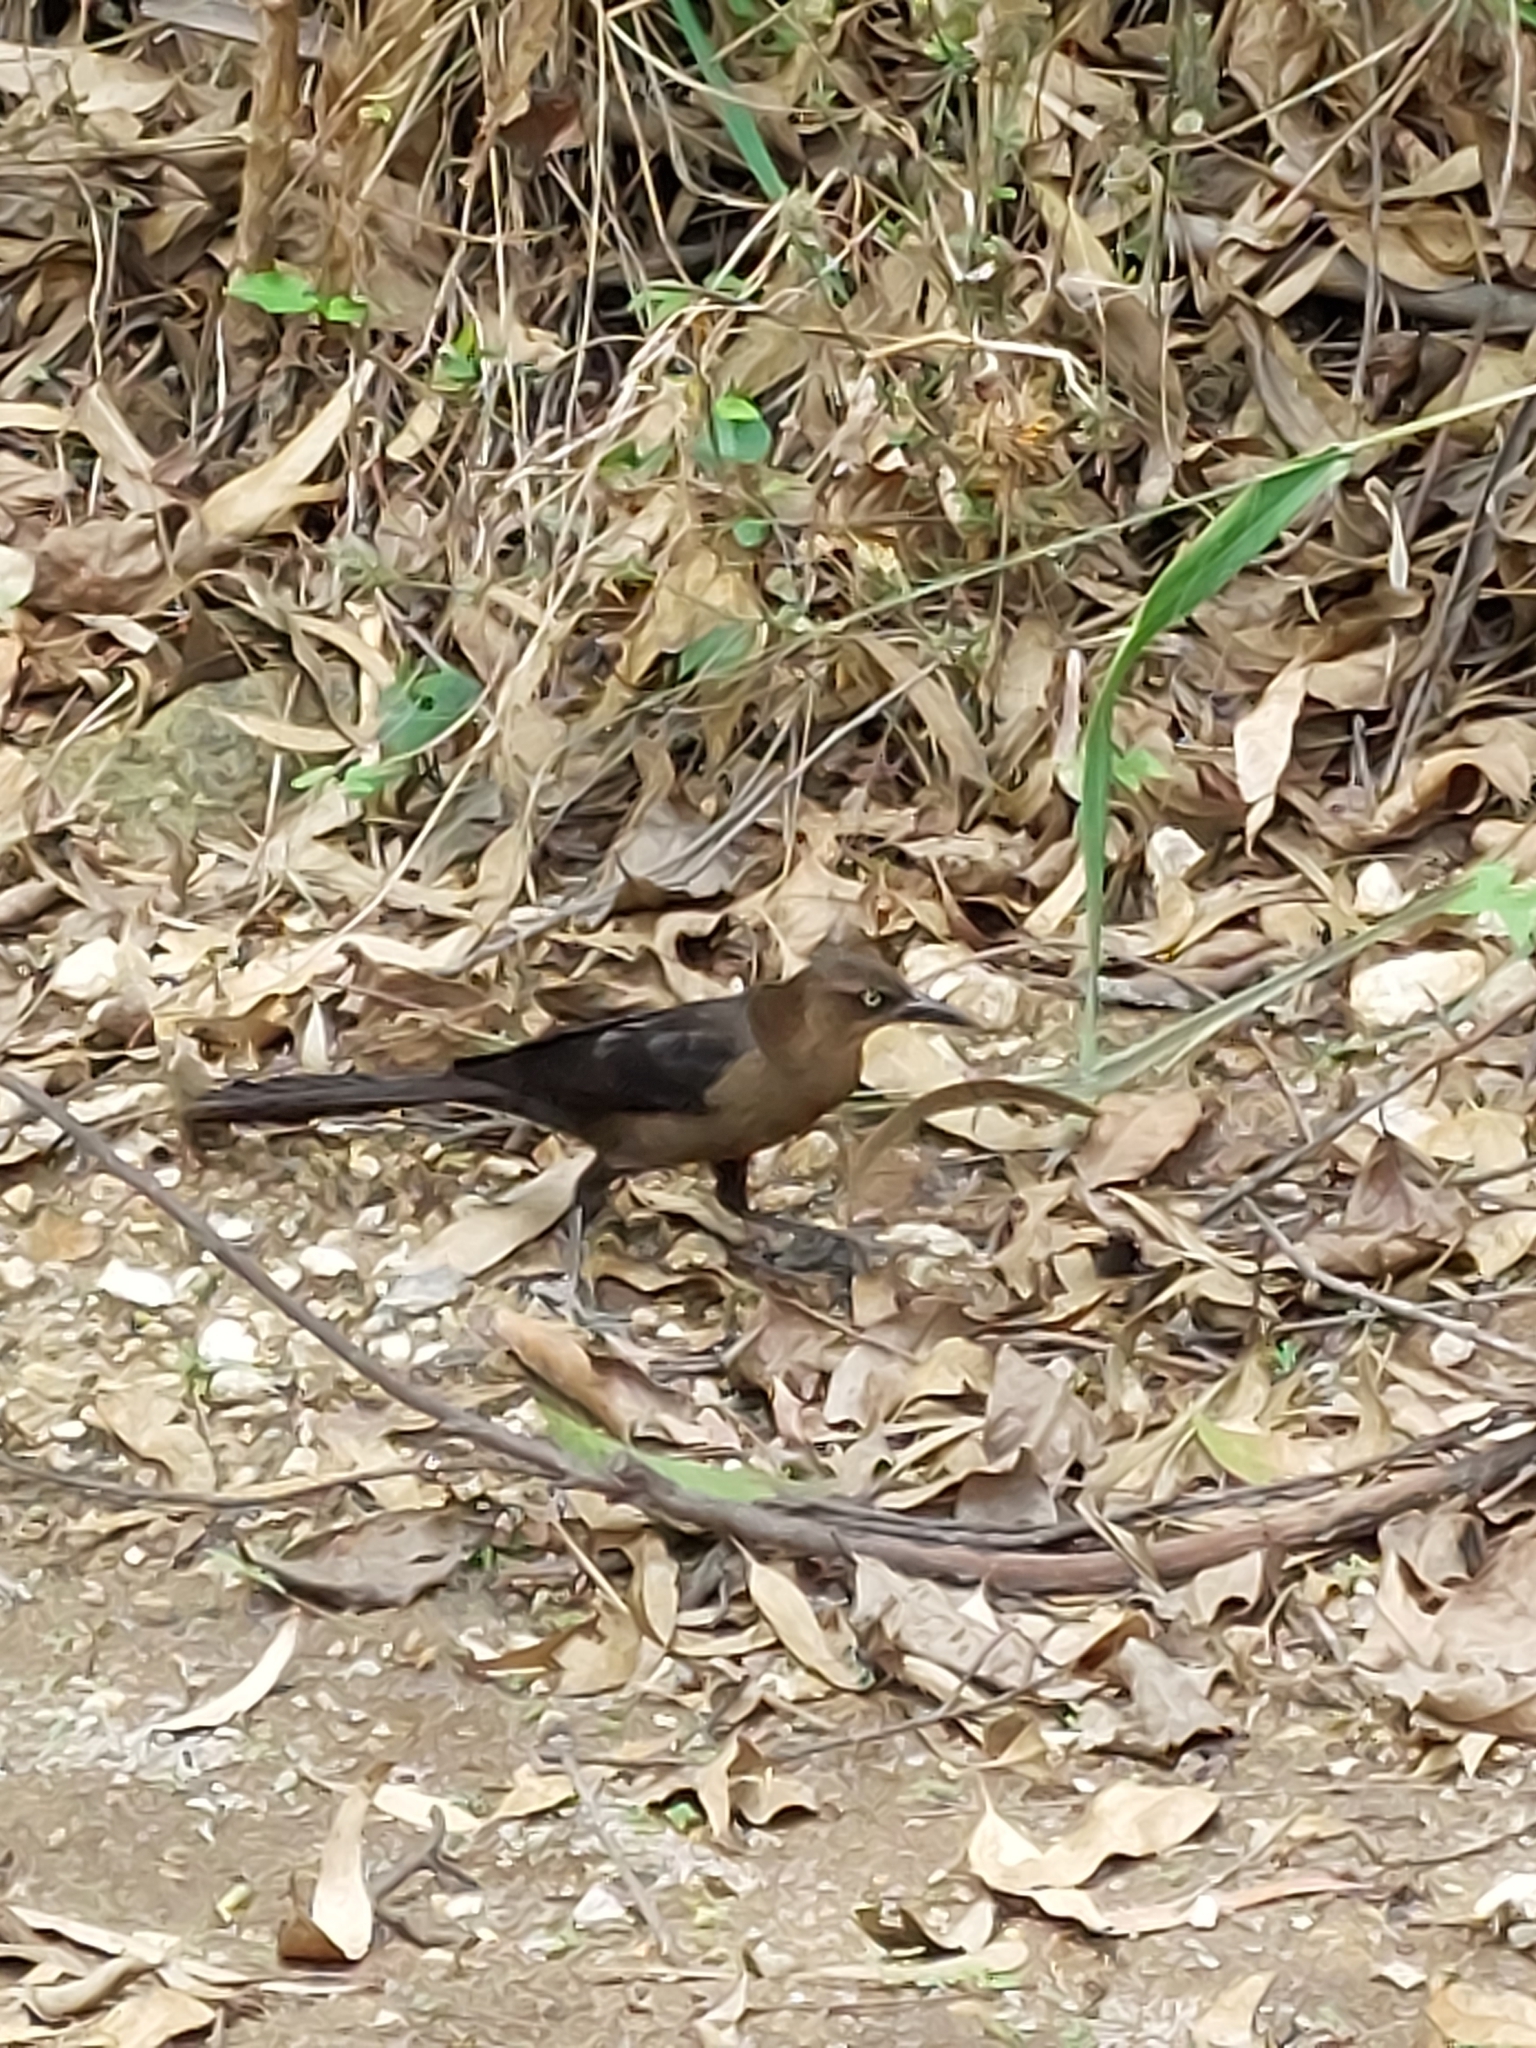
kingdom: Animalia
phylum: Chordata
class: Aves
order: Passeriformes
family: Icteridae
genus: Quiscalus
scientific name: Quiscalus mexicanus
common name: Great-tailed grackle
